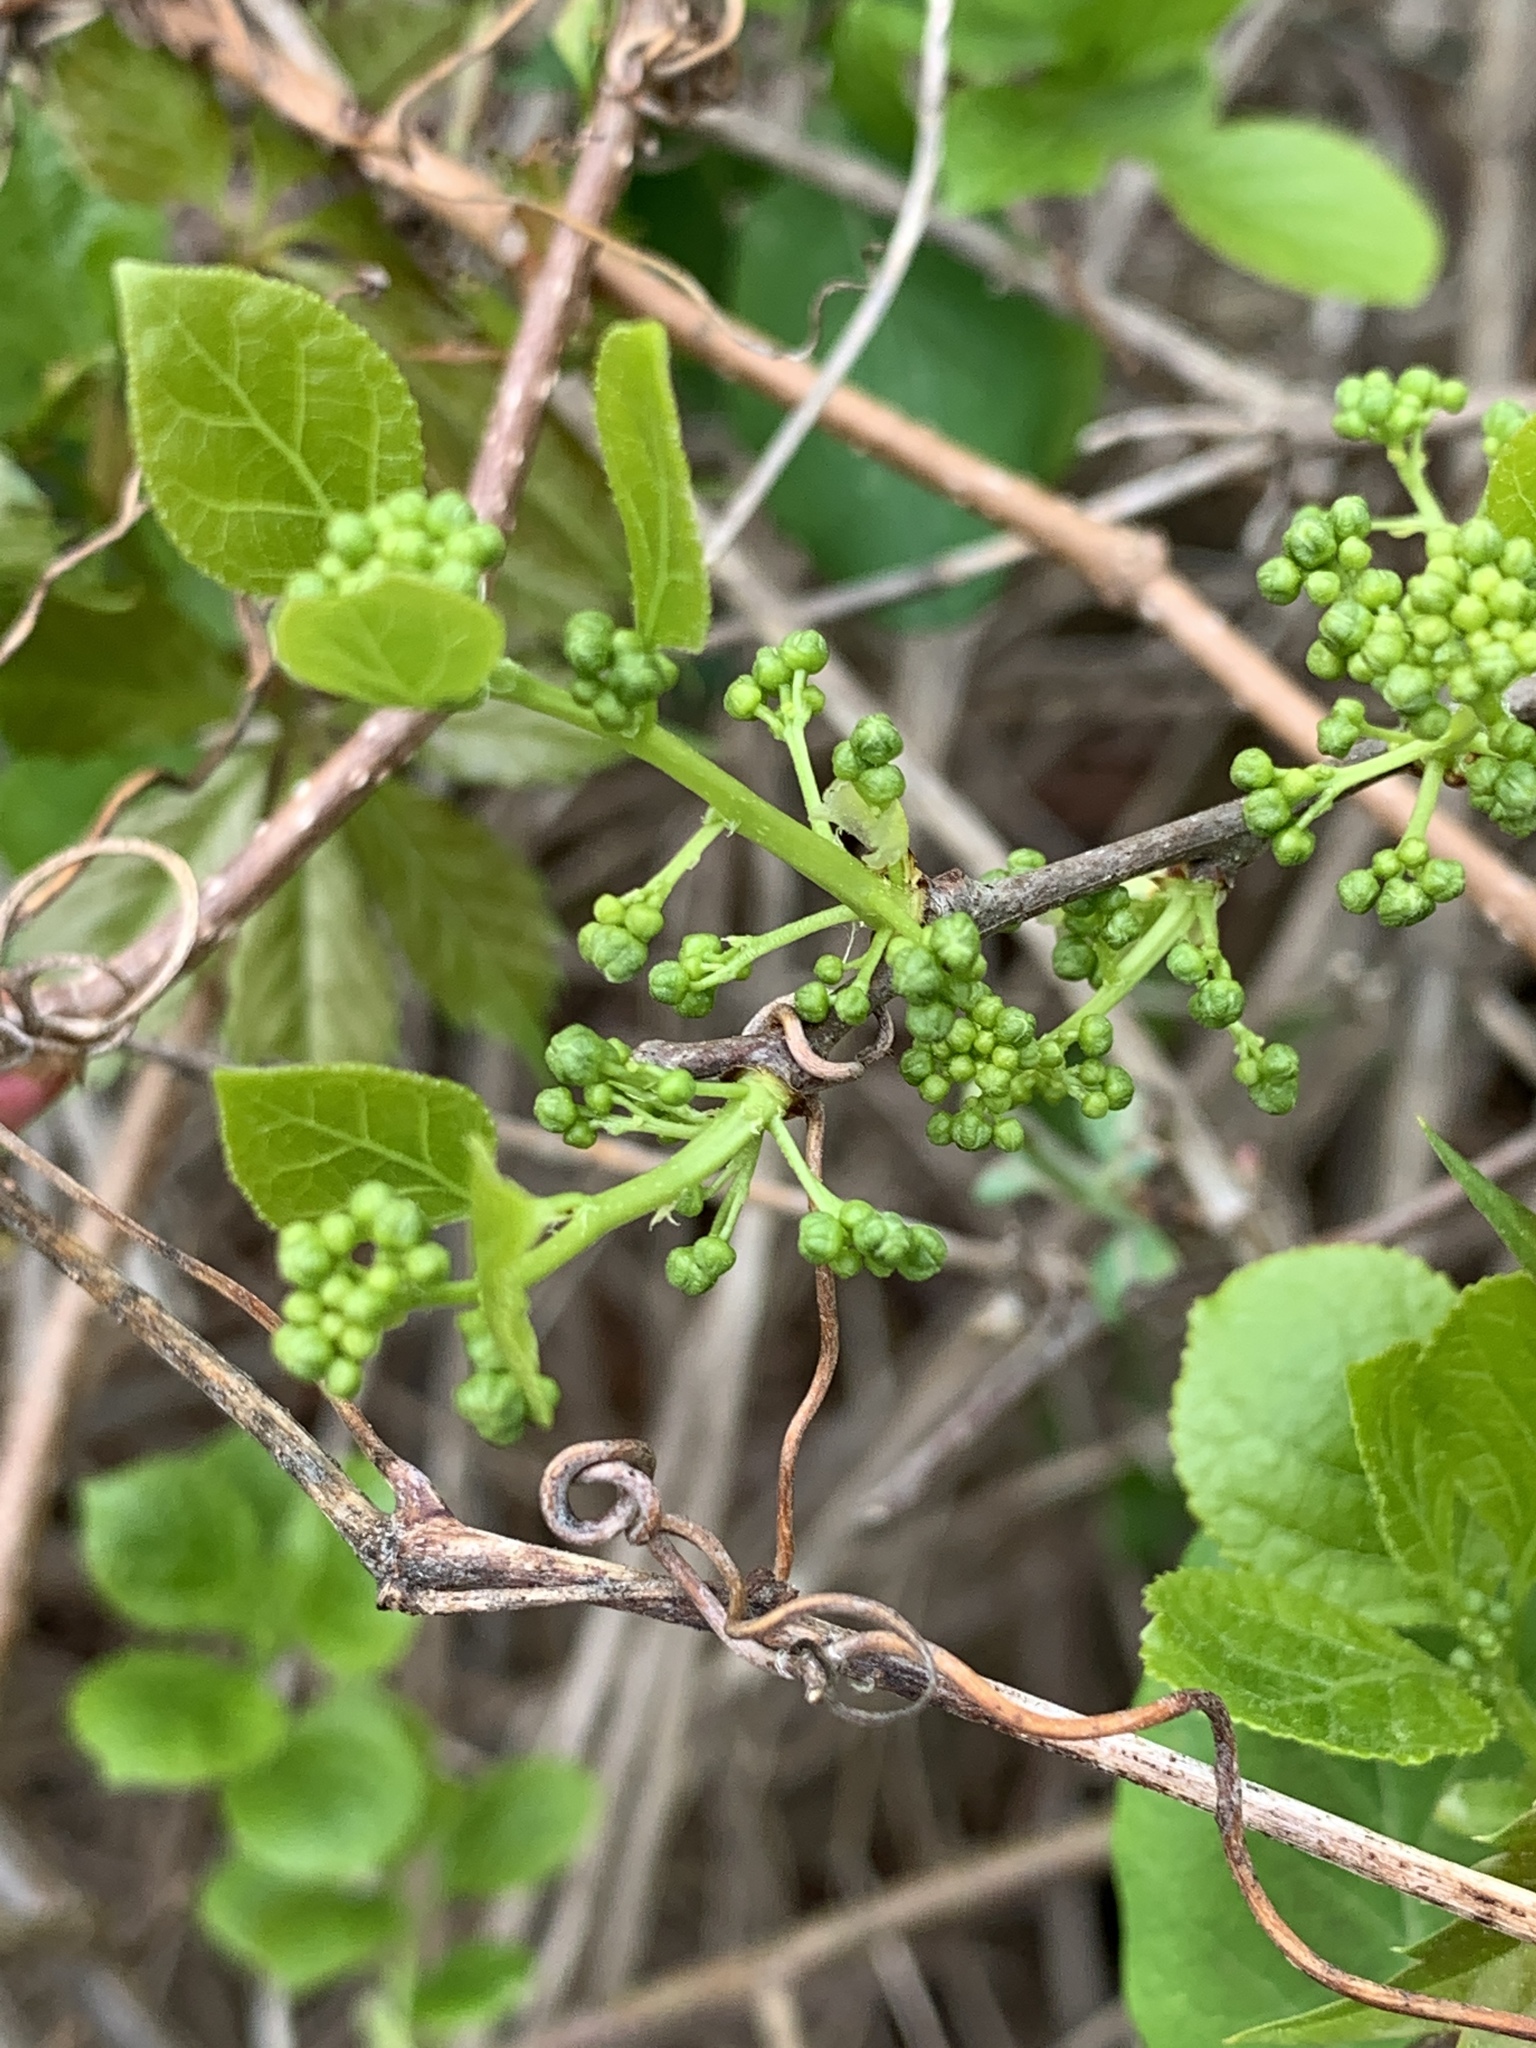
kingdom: Plantae
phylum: Tracheophyta
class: Magnoliopsida
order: Celastrales
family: Celastraceae
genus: Celastrus
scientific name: Celastrus orbiculatus
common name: Oriental bittersweet
